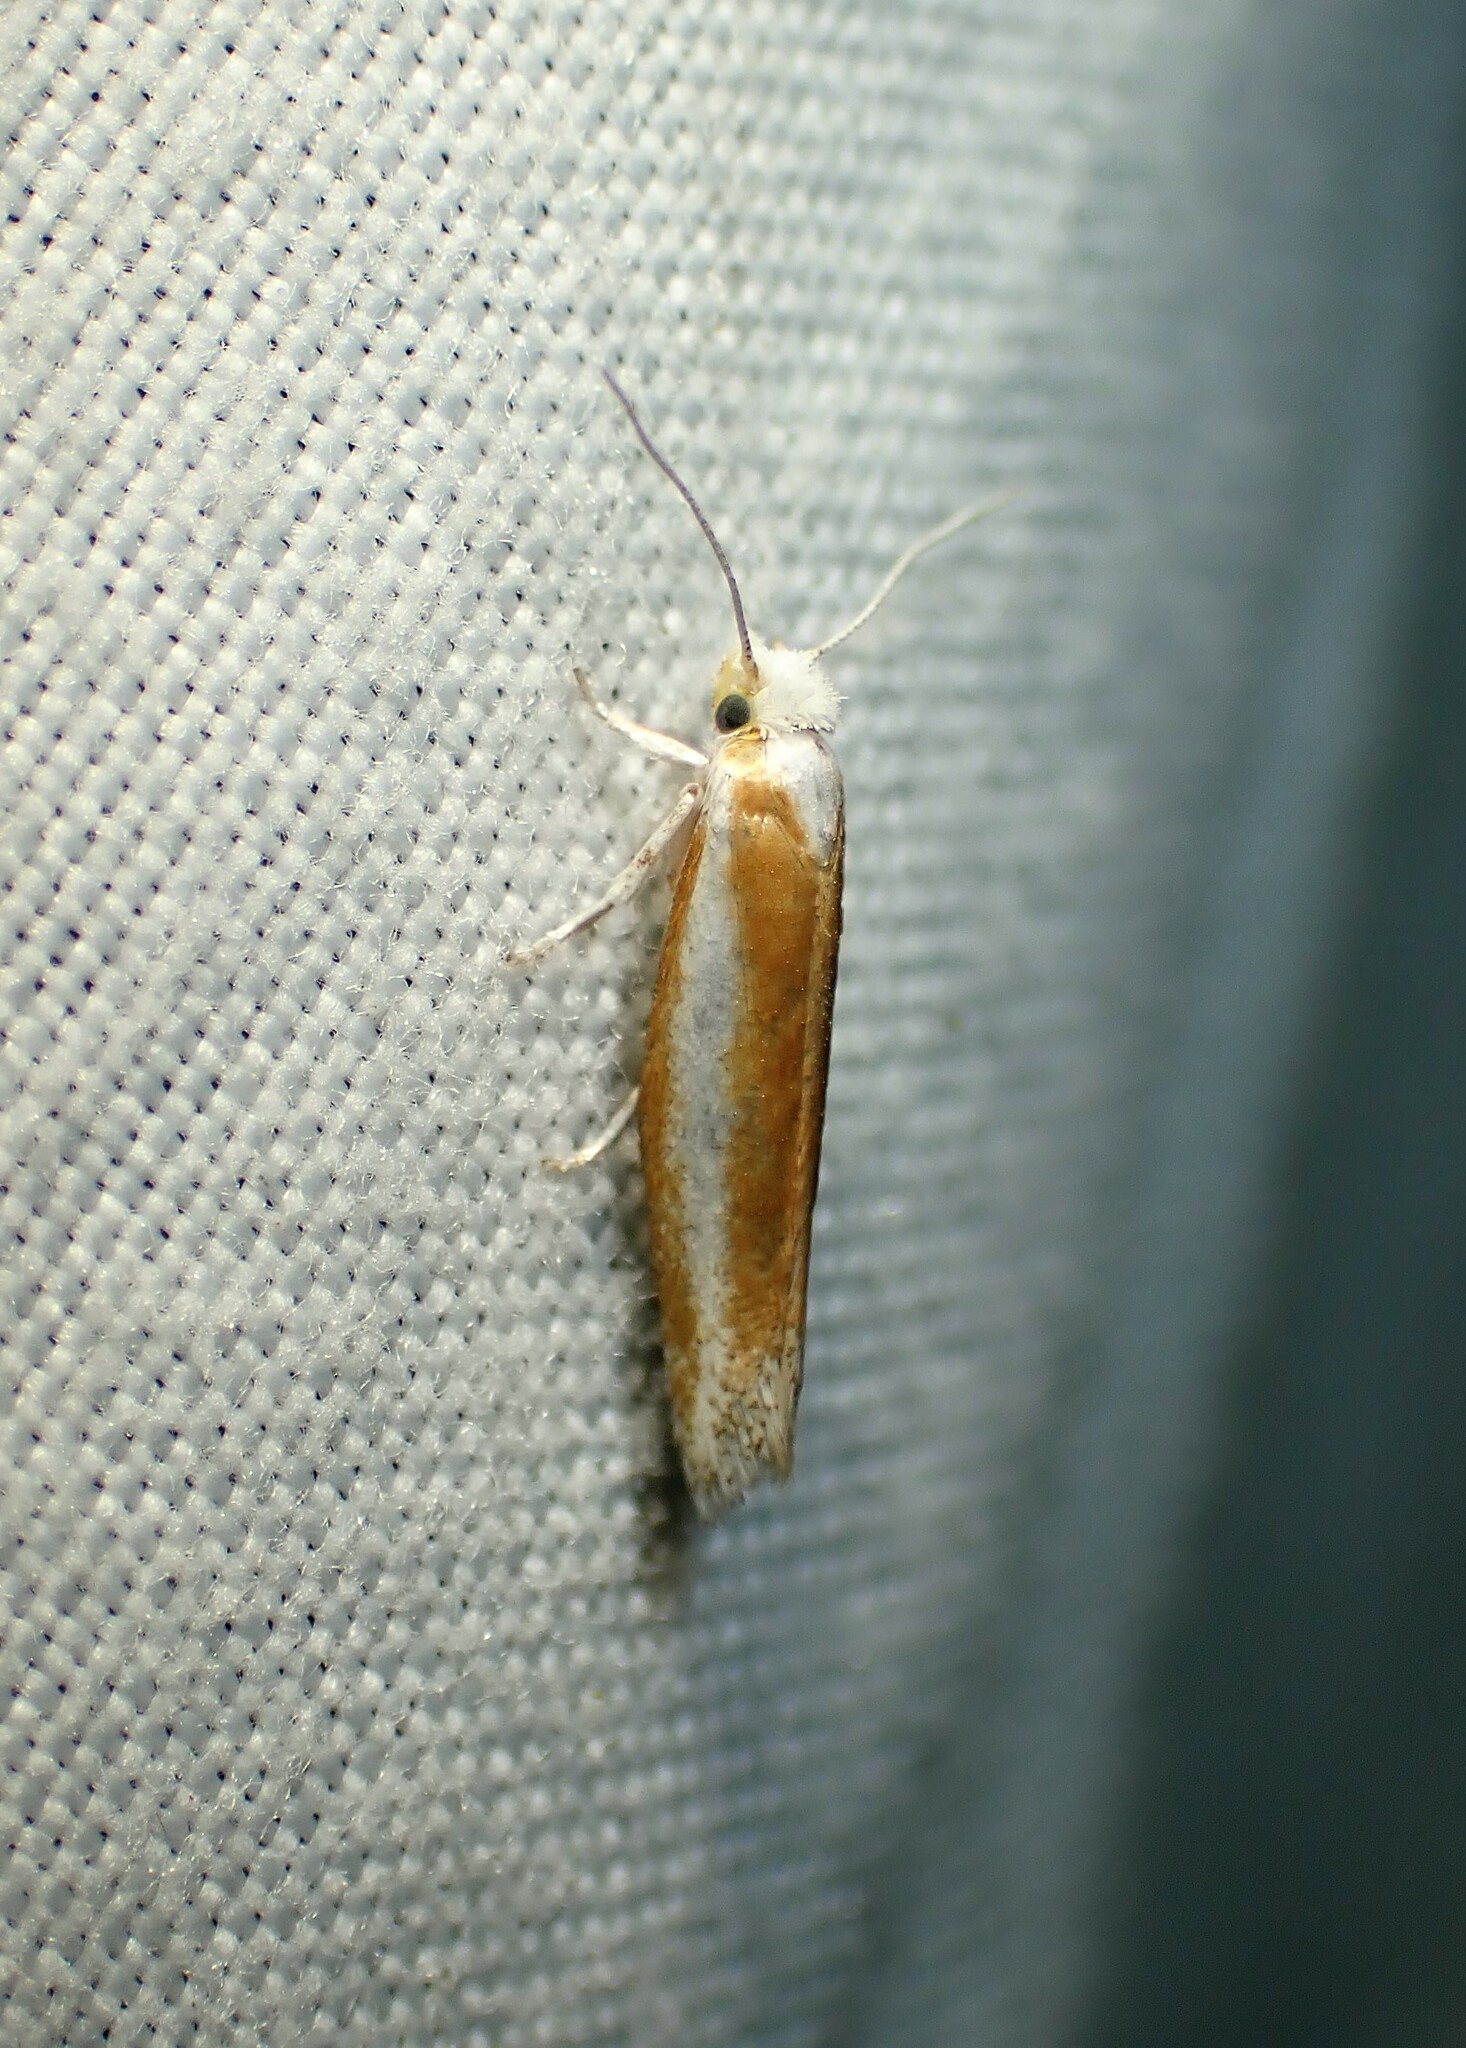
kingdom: Animalia
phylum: Arthropoda
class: Insecta
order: Lepidoptera
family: Yponomeutidae
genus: Zelleria
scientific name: Zelleria haimbachi
